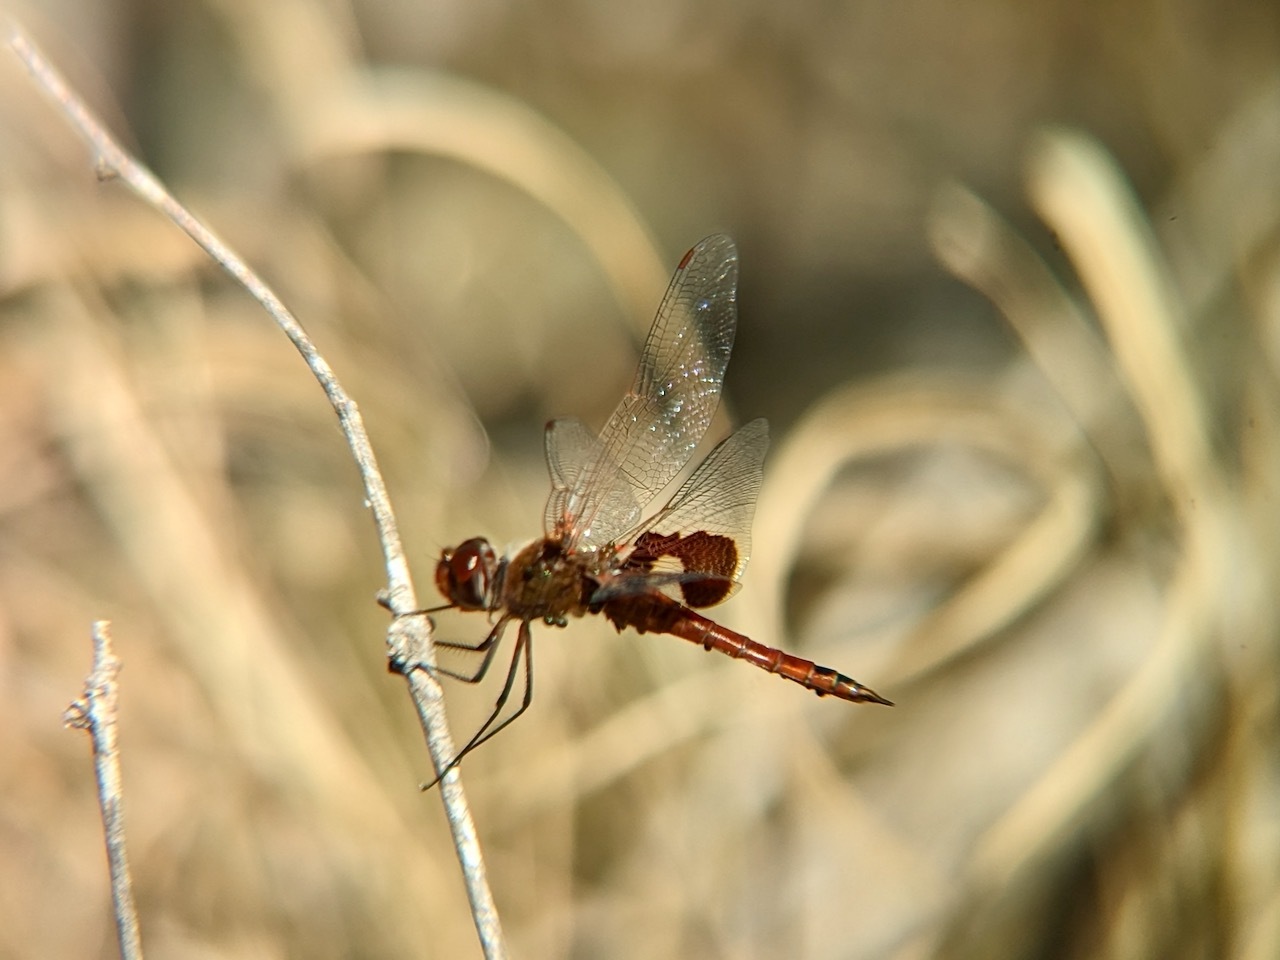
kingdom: Animalia
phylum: Arthropoda
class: Insecta
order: Odonata
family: Libellulidae
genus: Tramea
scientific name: Tramea onusta
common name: Red saddlebags
